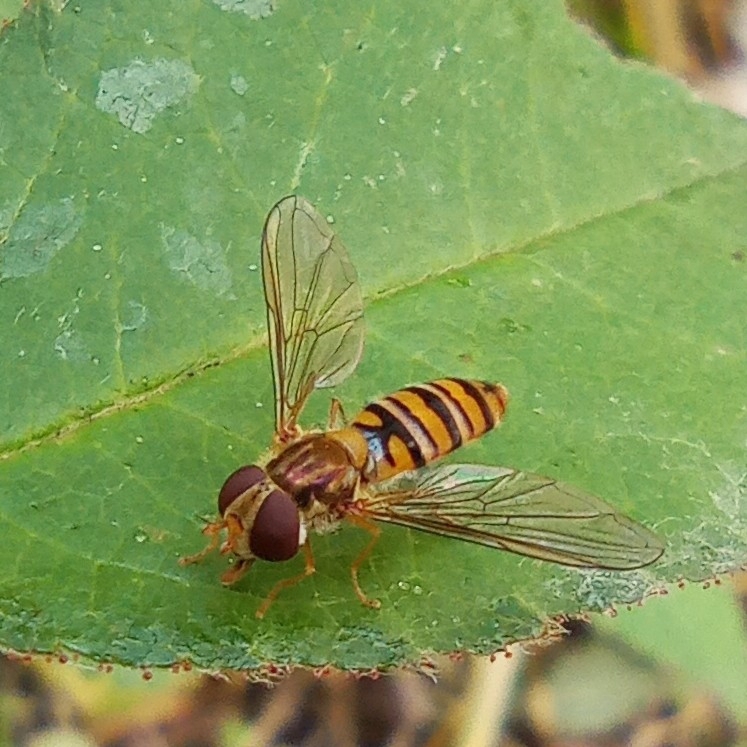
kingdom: Animalia
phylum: Arthropoda
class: Insecta
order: Diptera
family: Syrphidae
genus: Episyrphus
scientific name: Episyrphus balteatus
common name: Marmalade hoverfly
